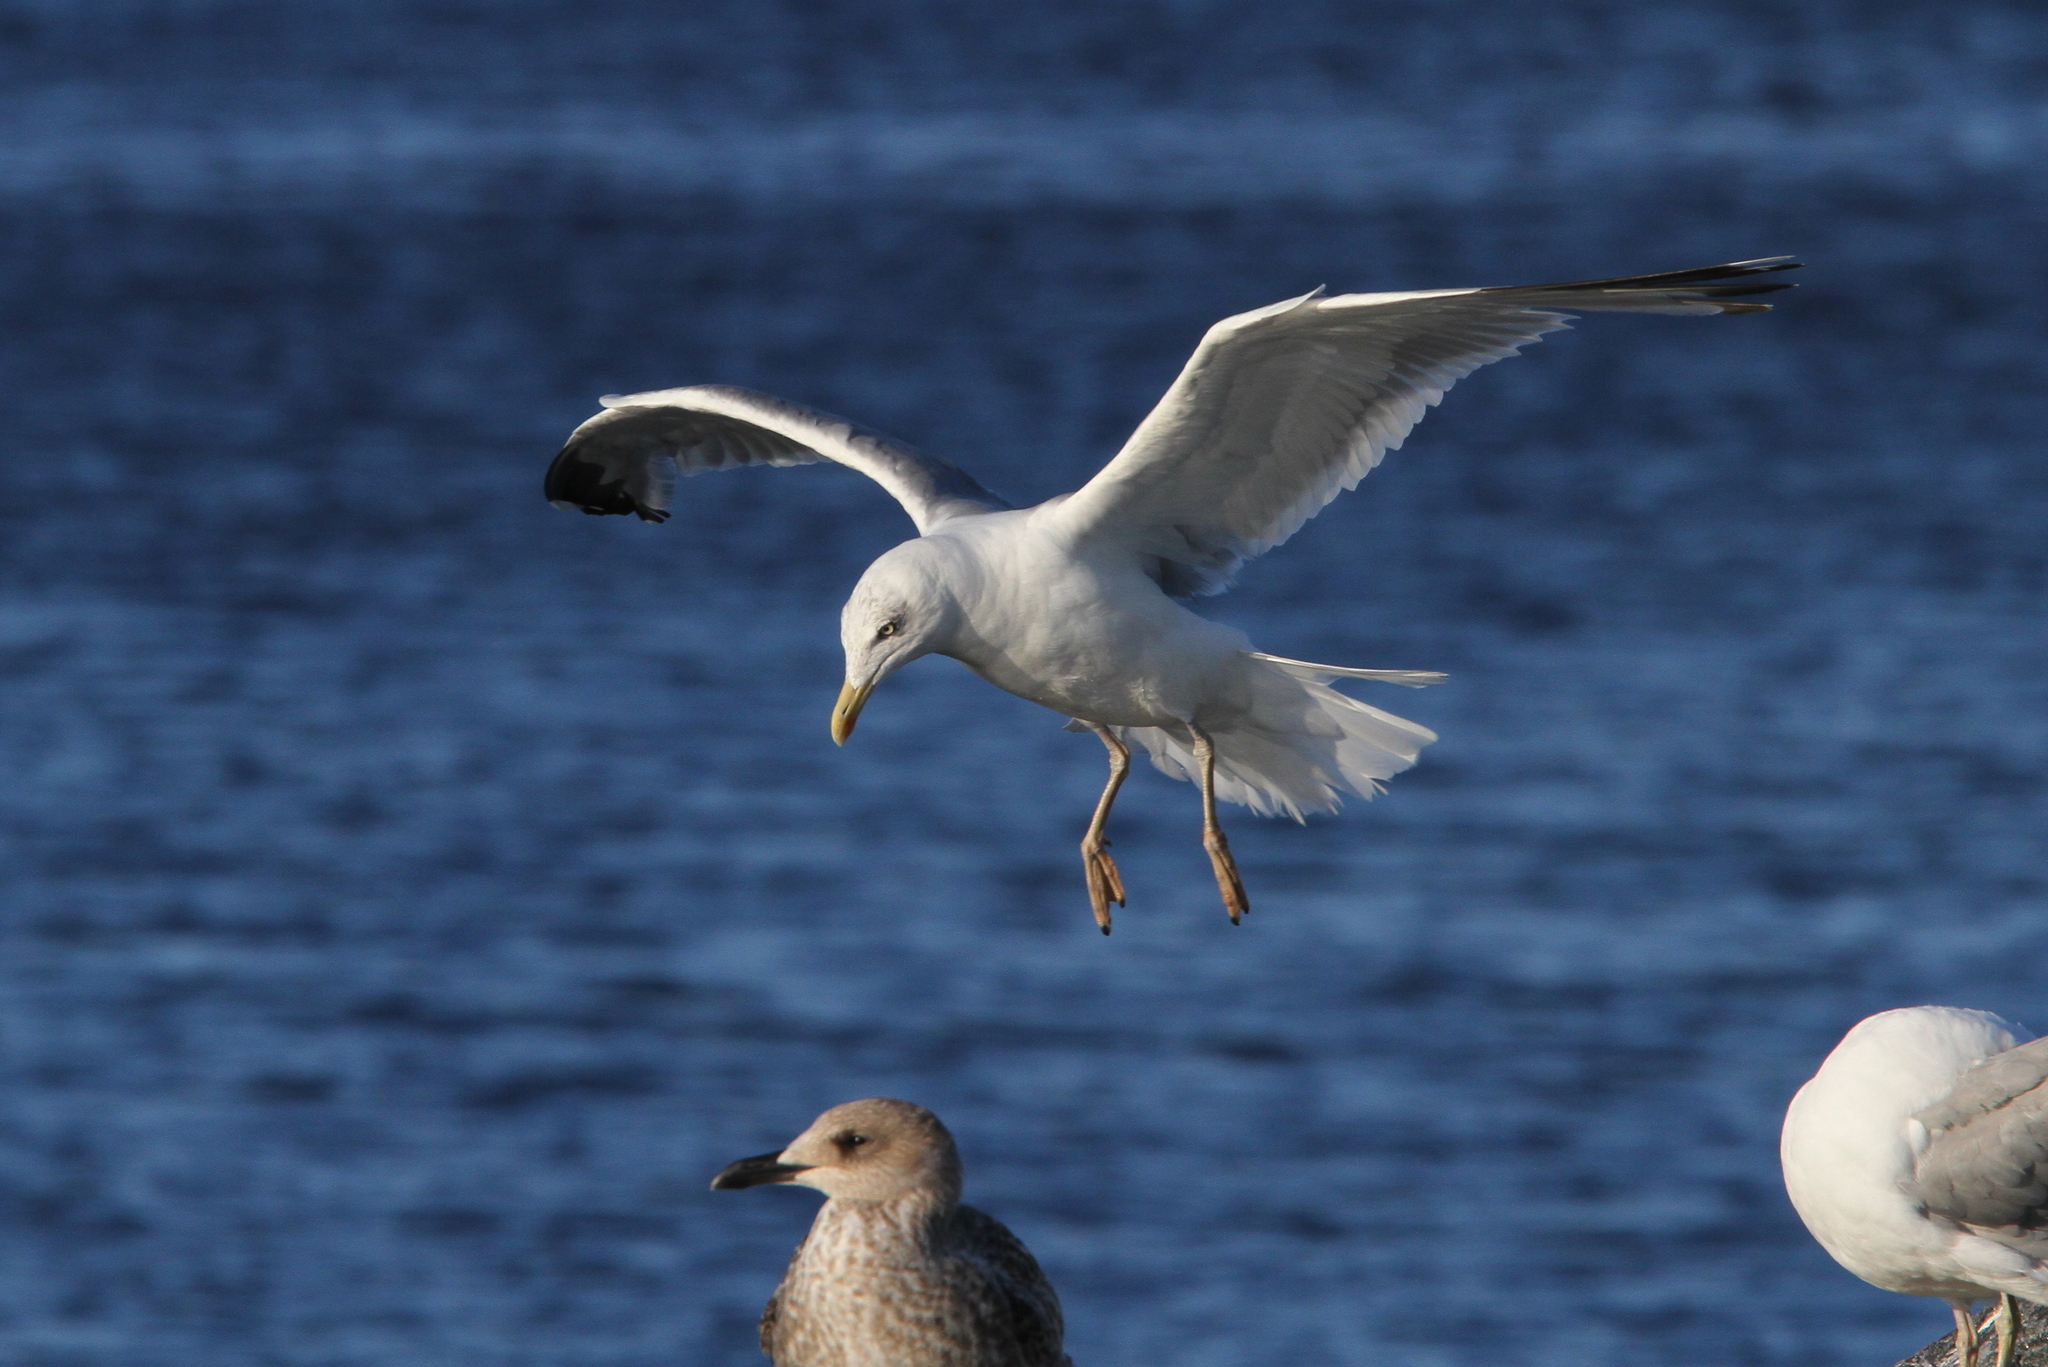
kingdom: Animalia
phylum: Chordata
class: Aves
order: Charadriiformes
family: Laridae
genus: Larus
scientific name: Larus argentatus
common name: Herring gull
